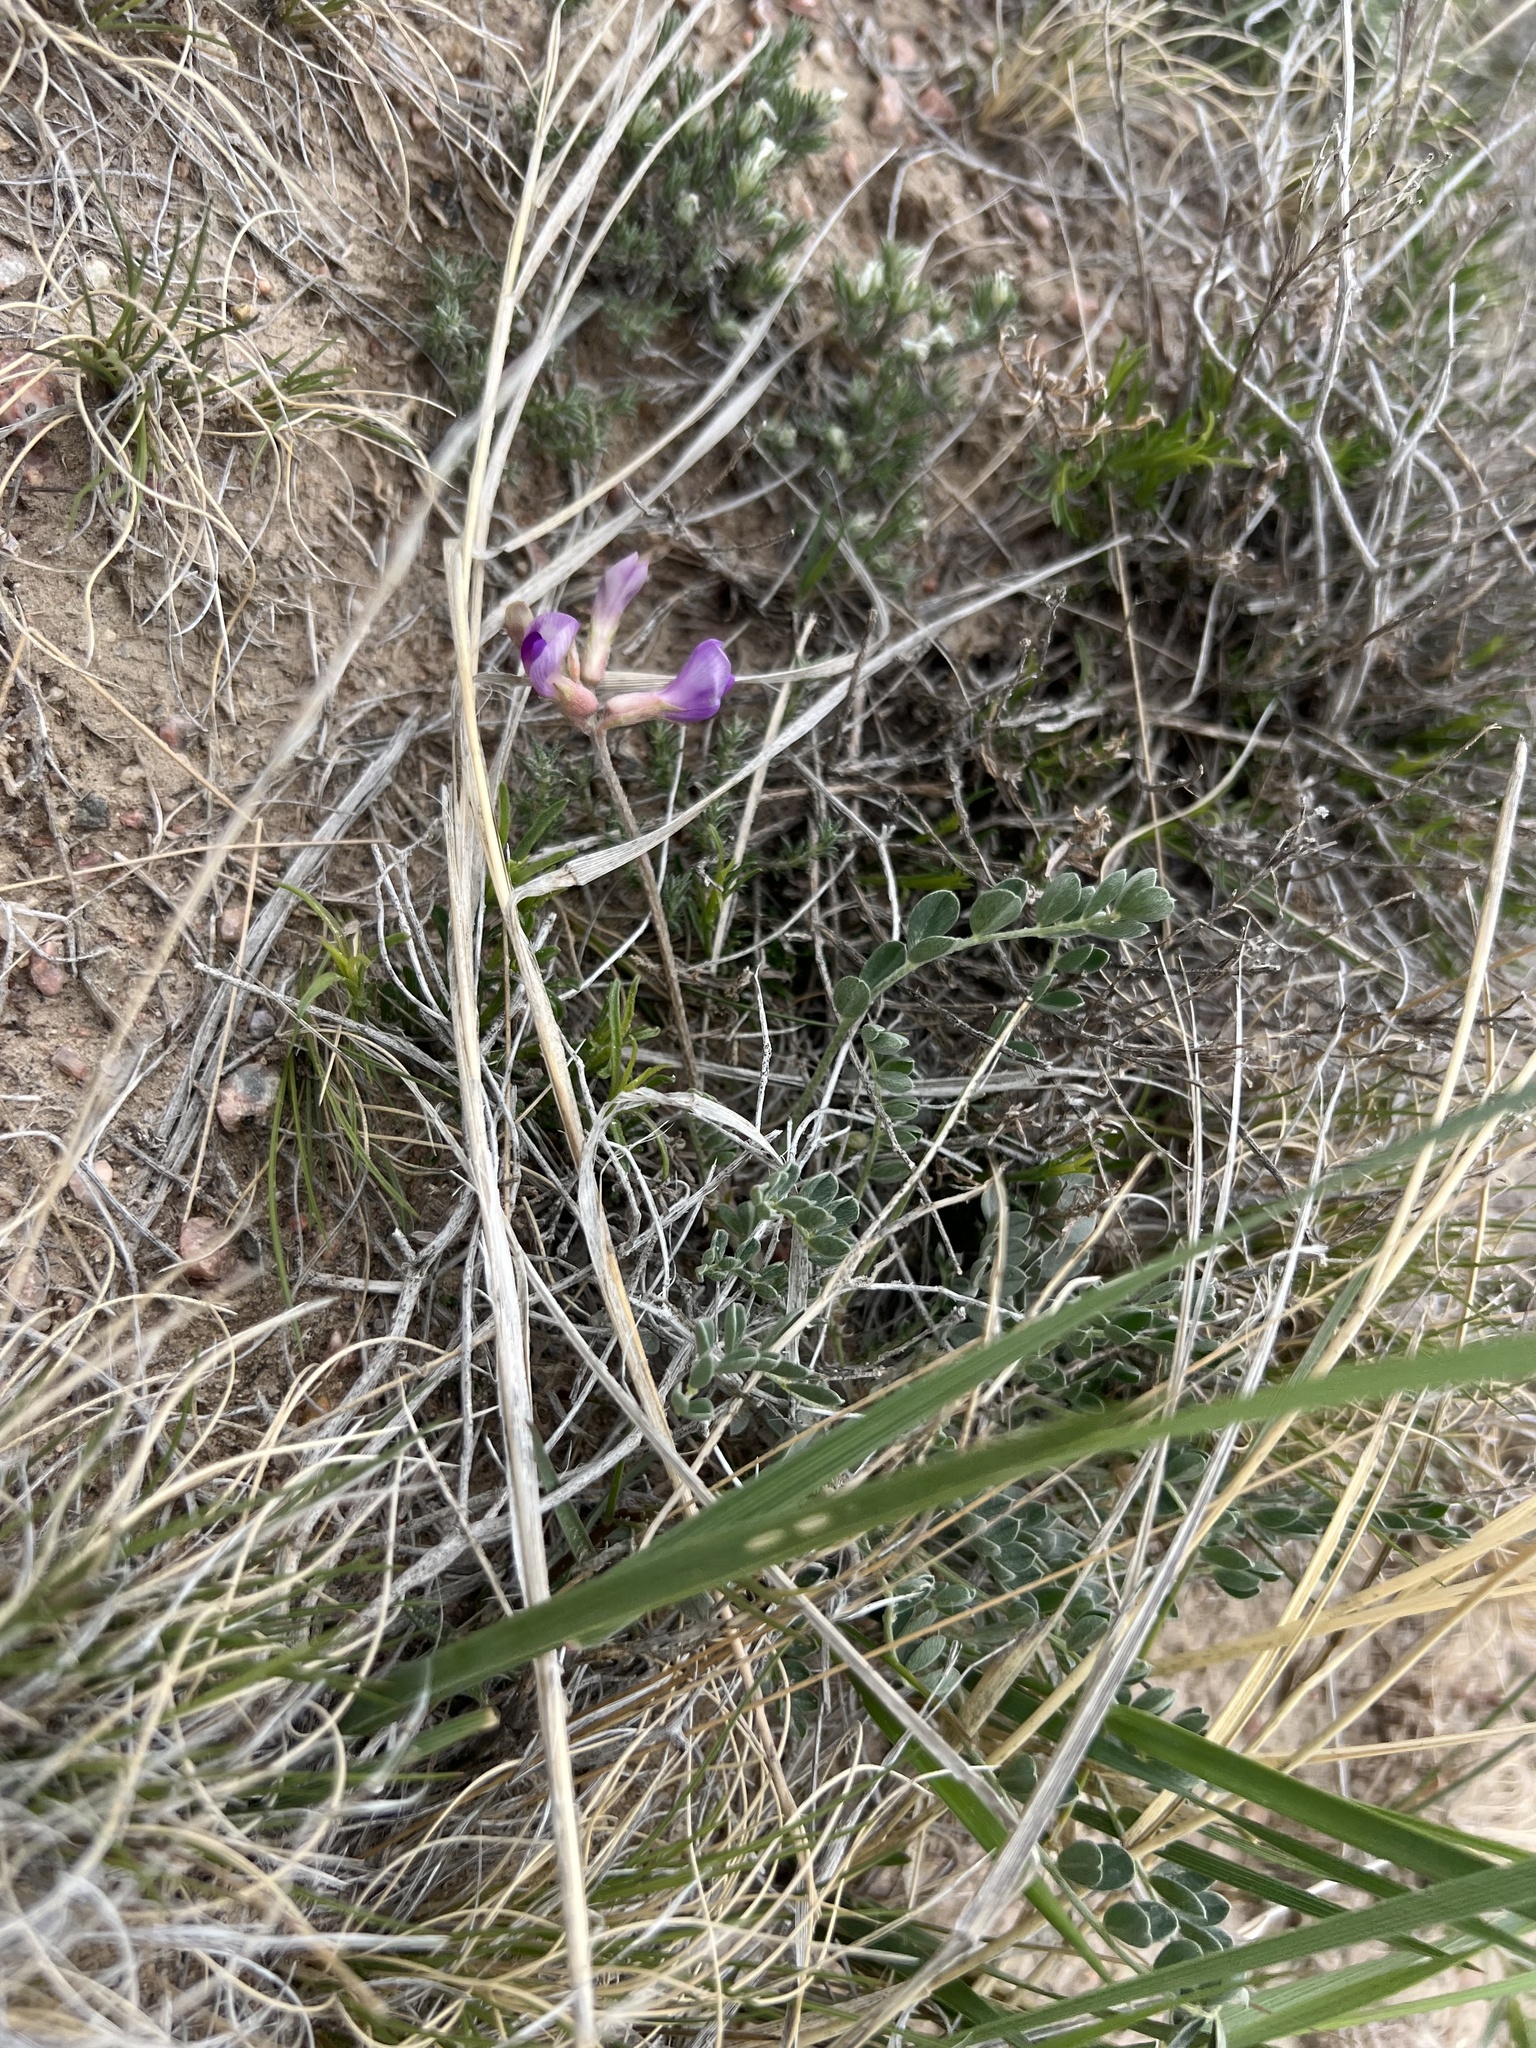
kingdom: Plantae
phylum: Tracheophyta
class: Magnoliopsida
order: Fabales
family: Fabaceae
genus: Astragalus
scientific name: Astragalus missouriensis
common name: Missouri milk-vetch
